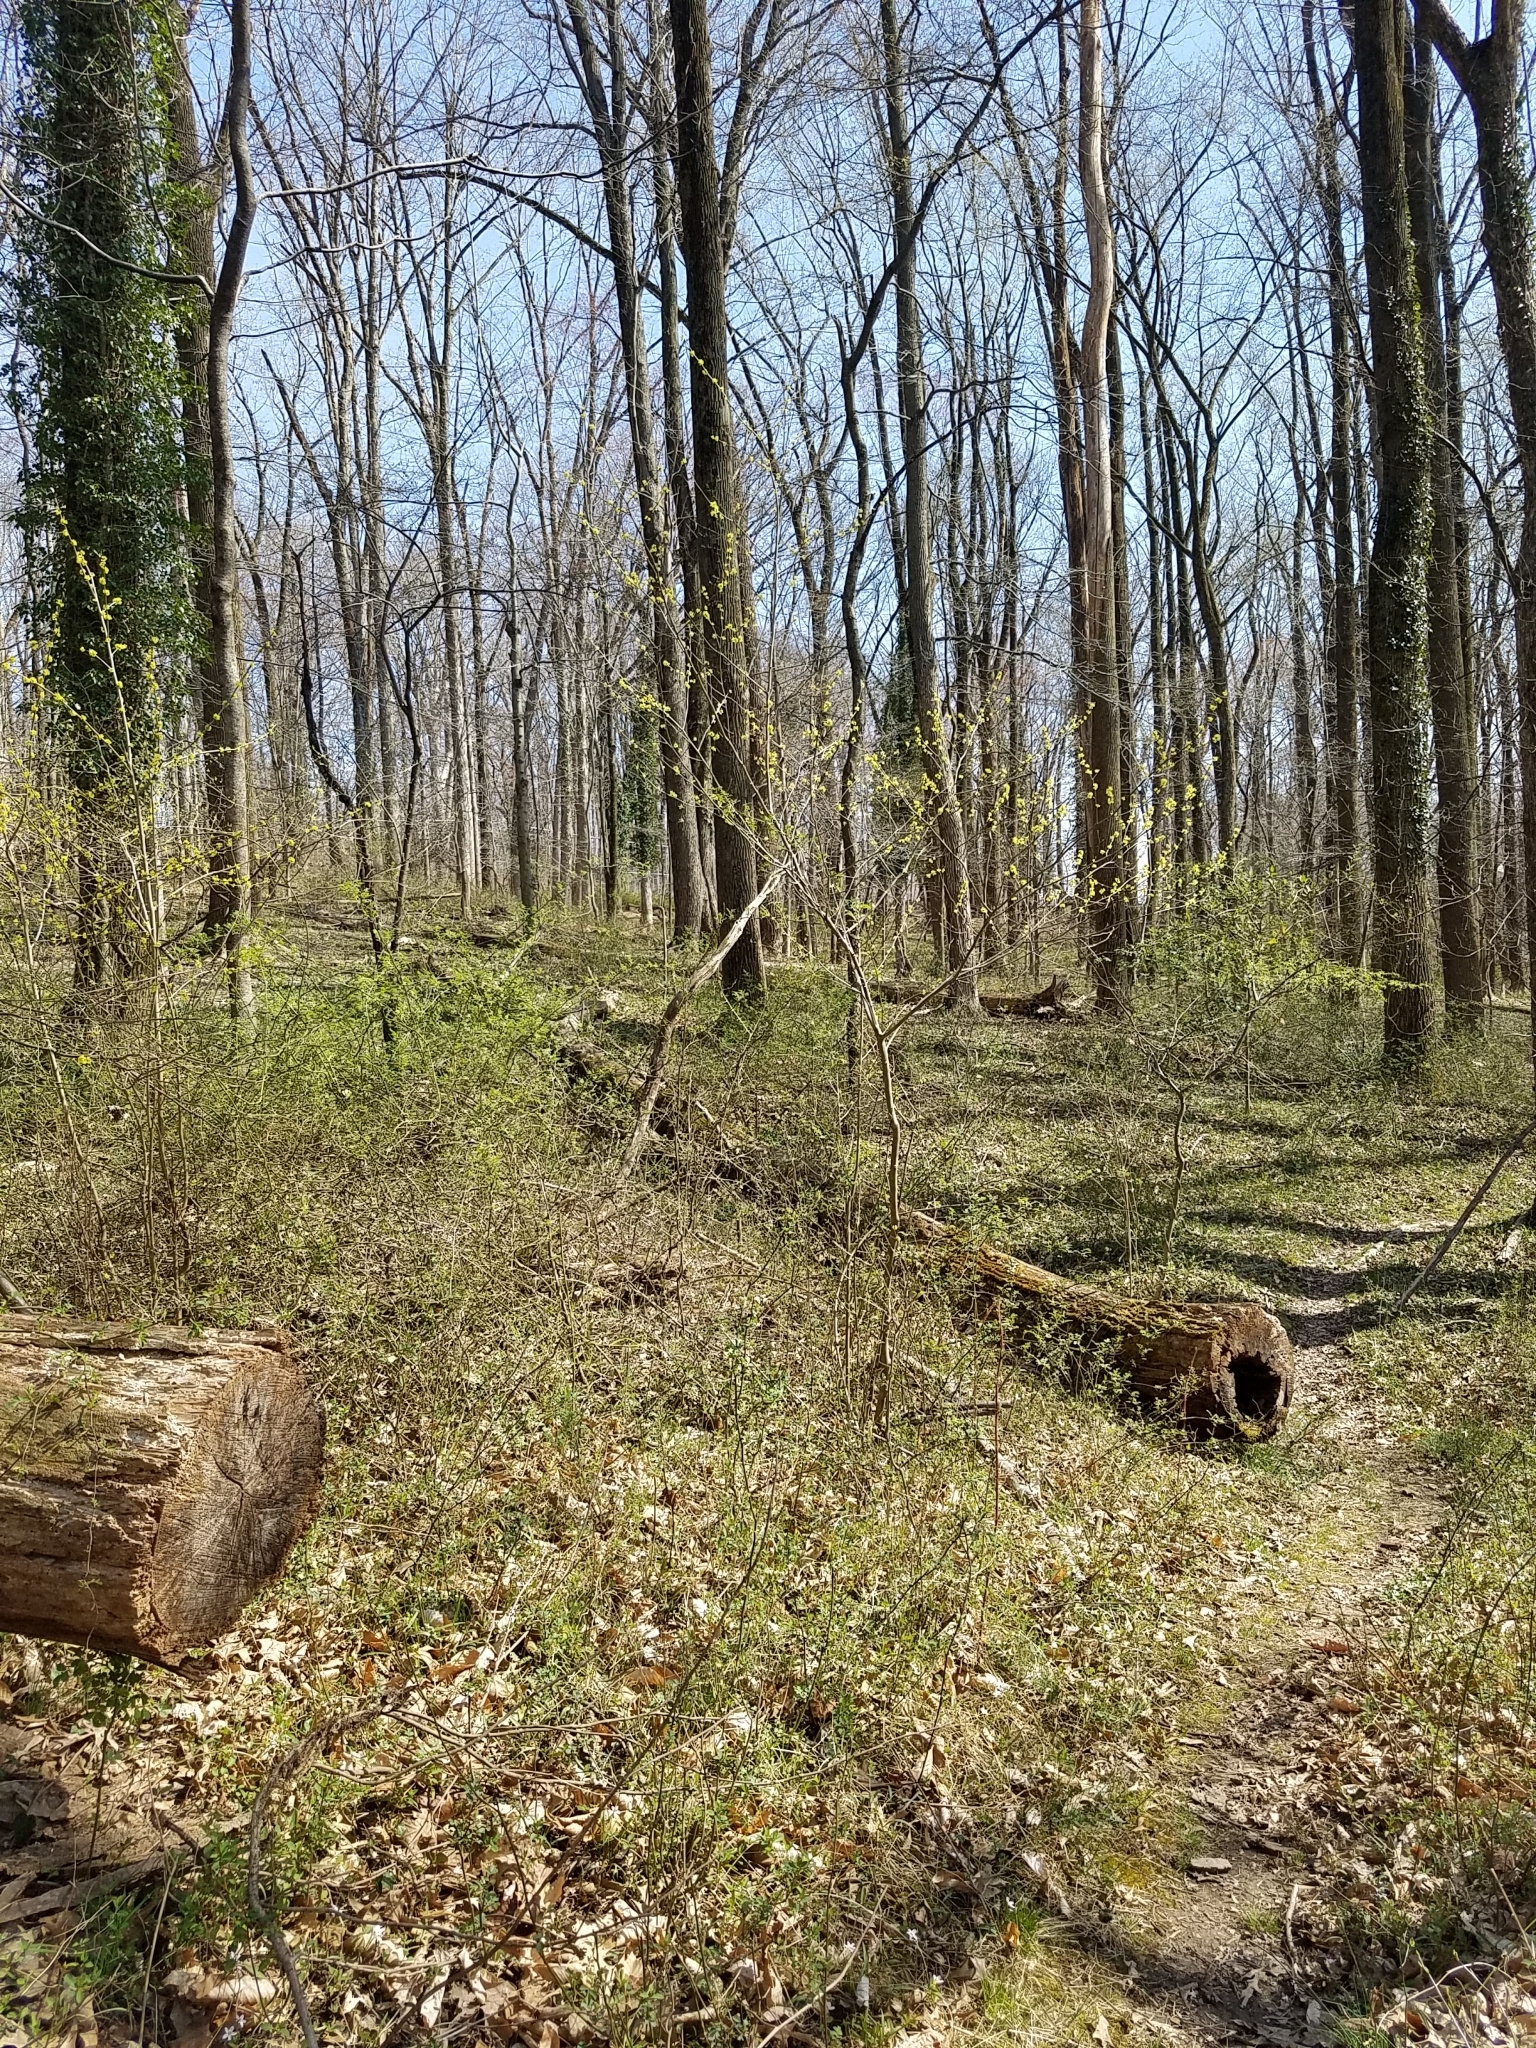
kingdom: Plantae
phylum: Tracheophyta
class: Magnoliopsida
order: Laurales
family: Lauraceae
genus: Lindera
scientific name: Lindera benzoin
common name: Spicebush
